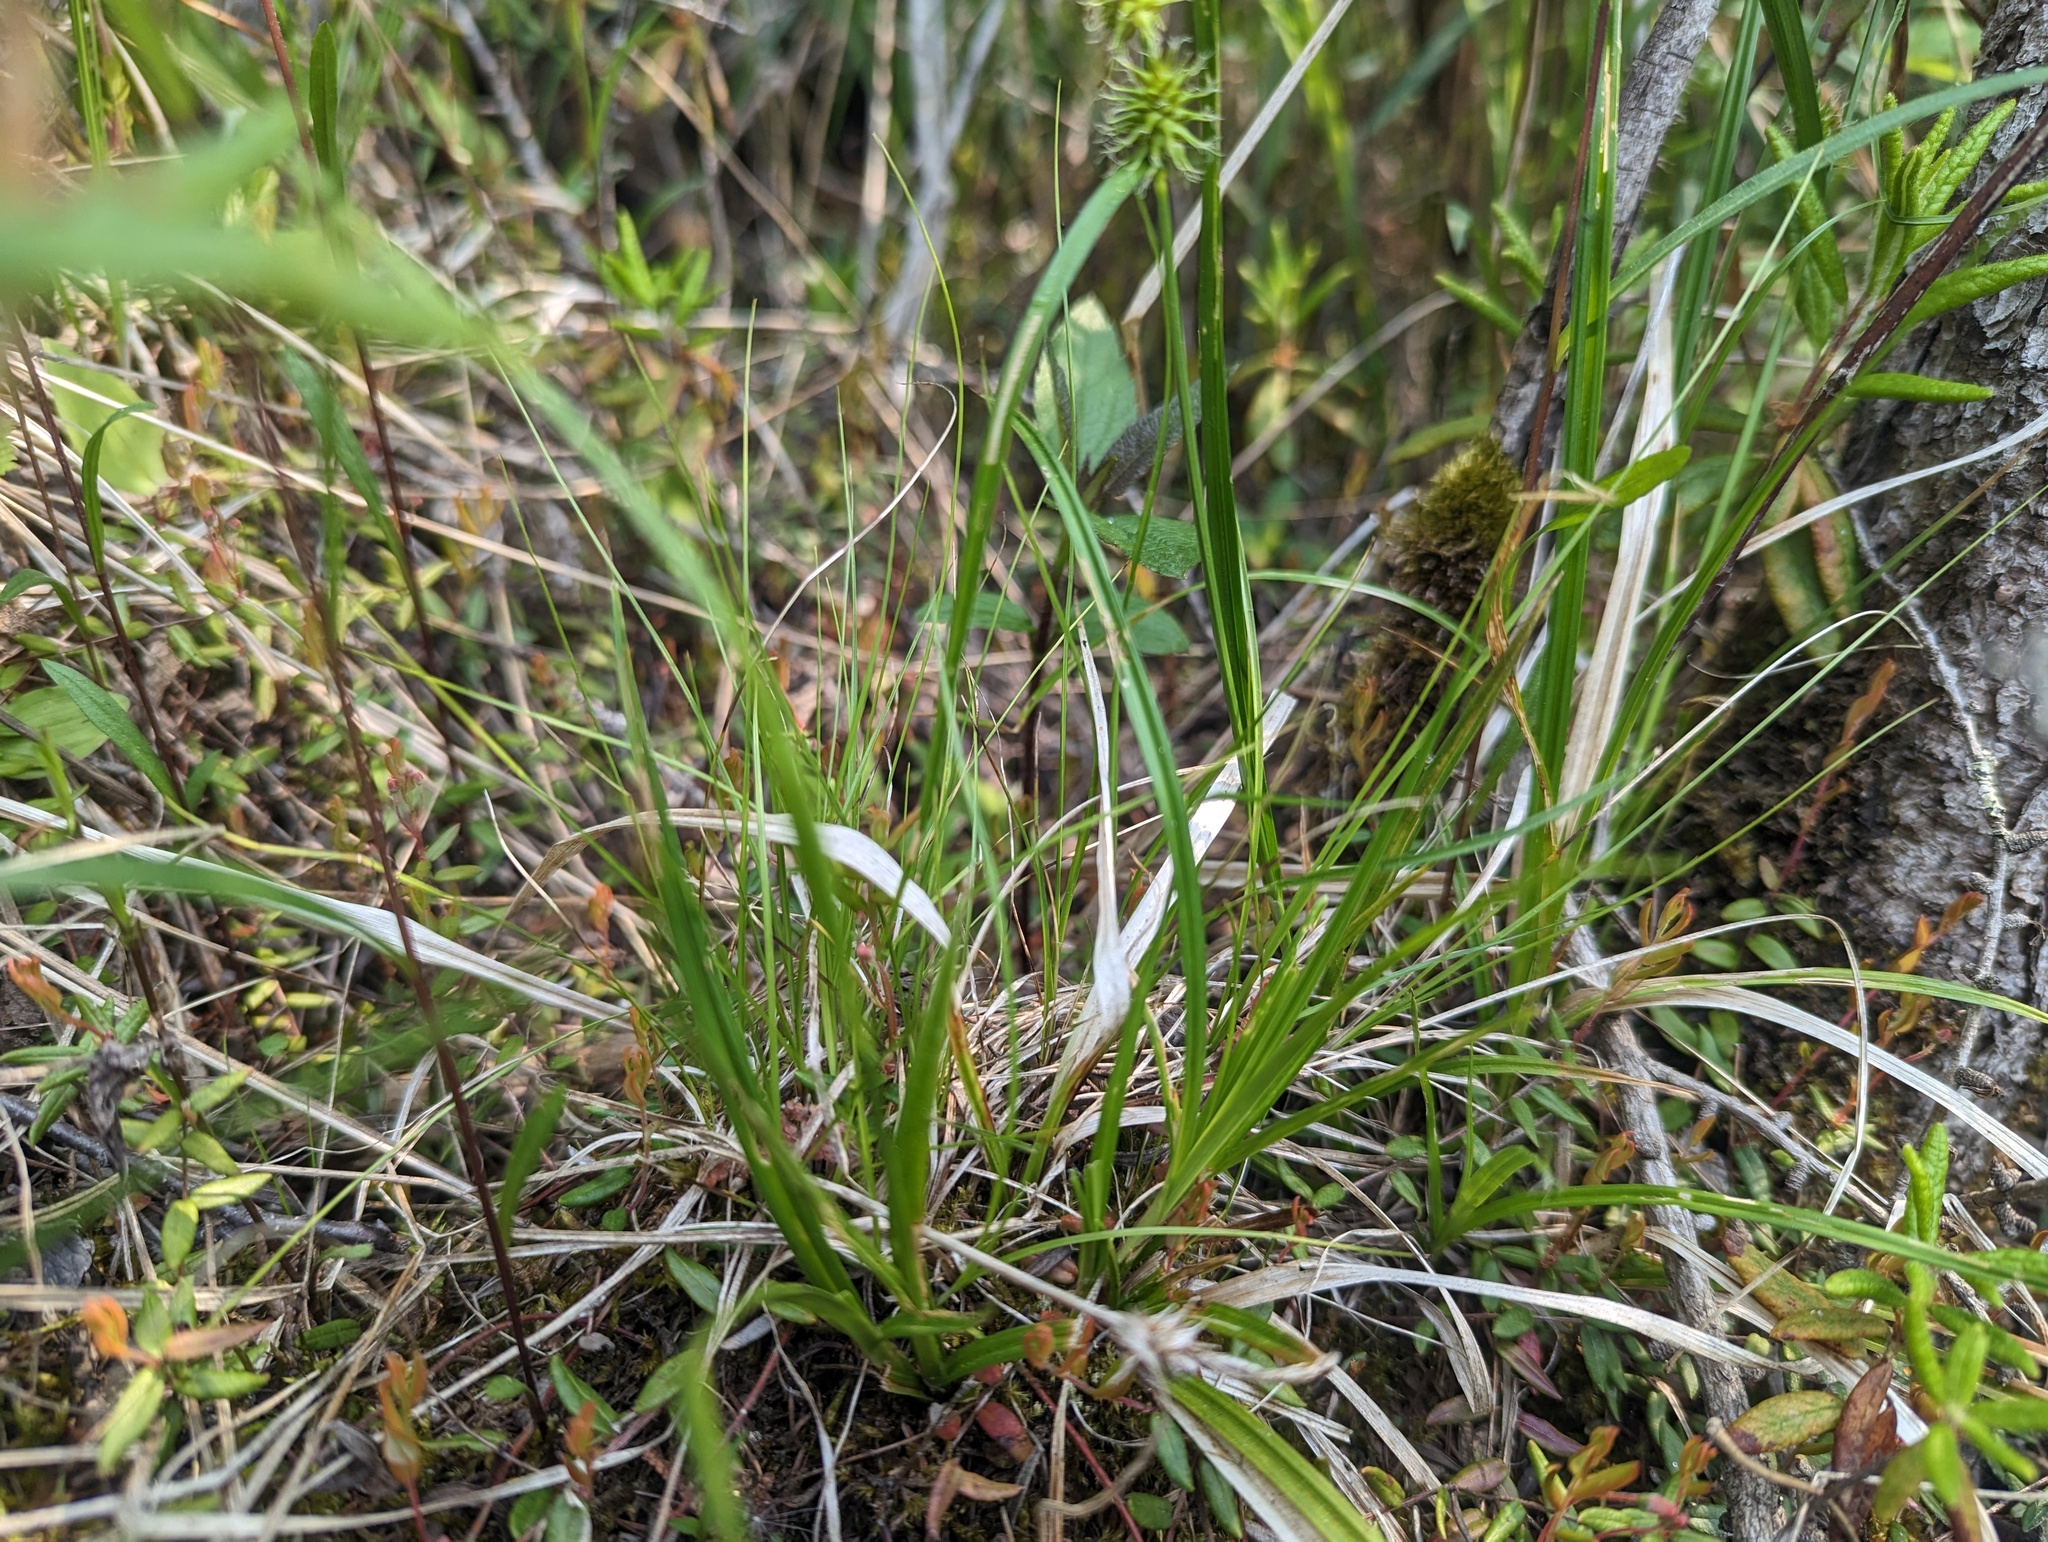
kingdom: Plantae
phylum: Tracheophyta
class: Liliopsida
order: Poales
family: Cyperaceae
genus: Carex
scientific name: Carex flava
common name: Large yellow-sedge
